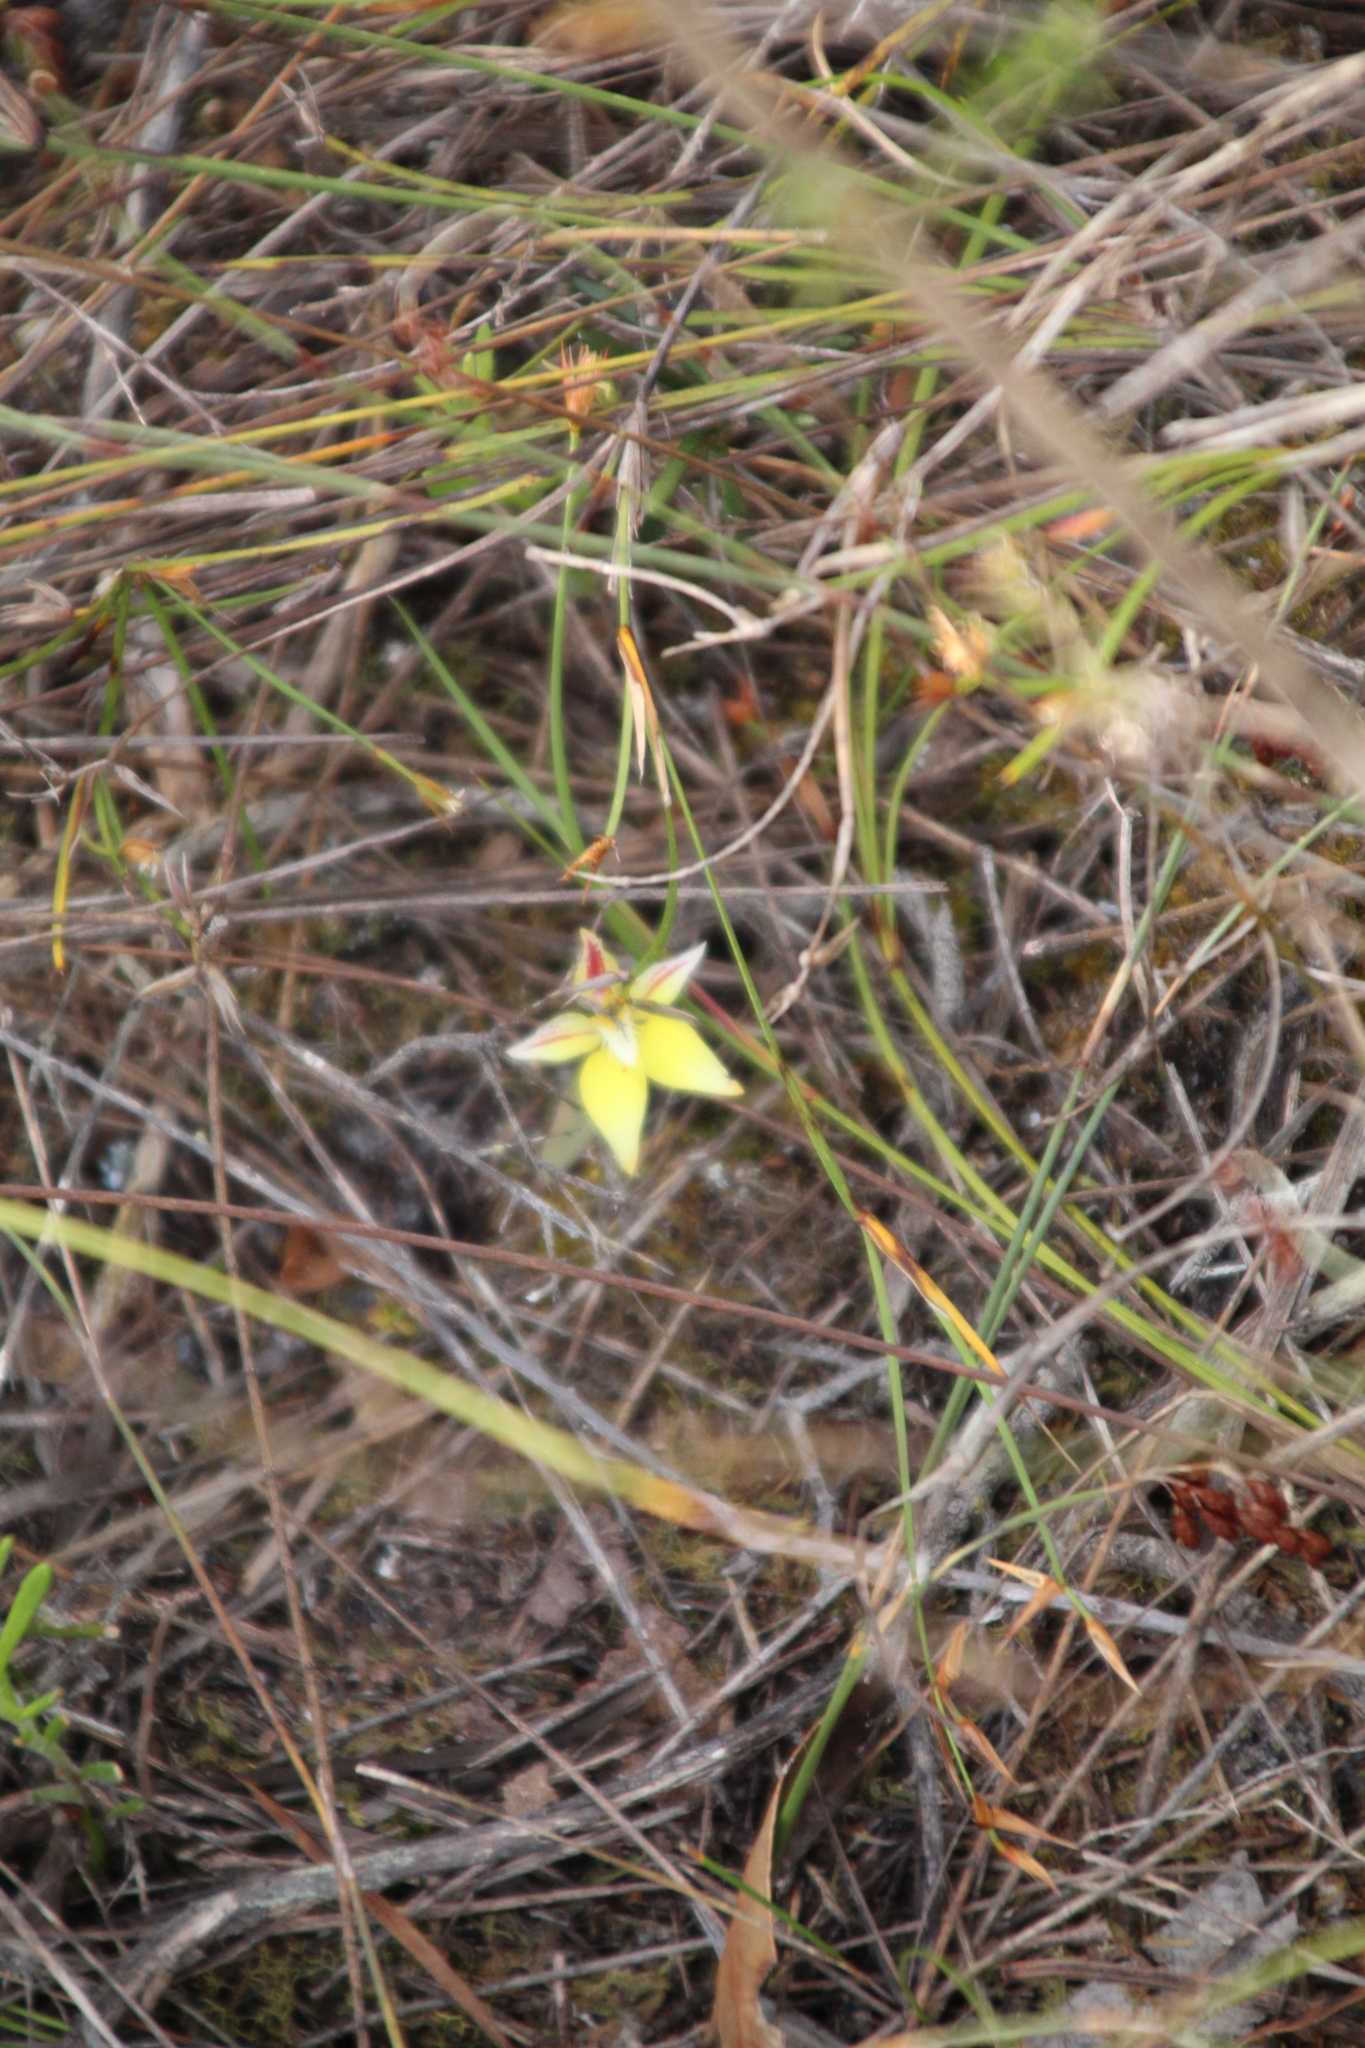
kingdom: Plantae
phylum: Tracheophyta
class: Liliopsida
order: Asparagales
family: Orchidaceae
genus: Caladenia
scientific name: Caladenia flava
